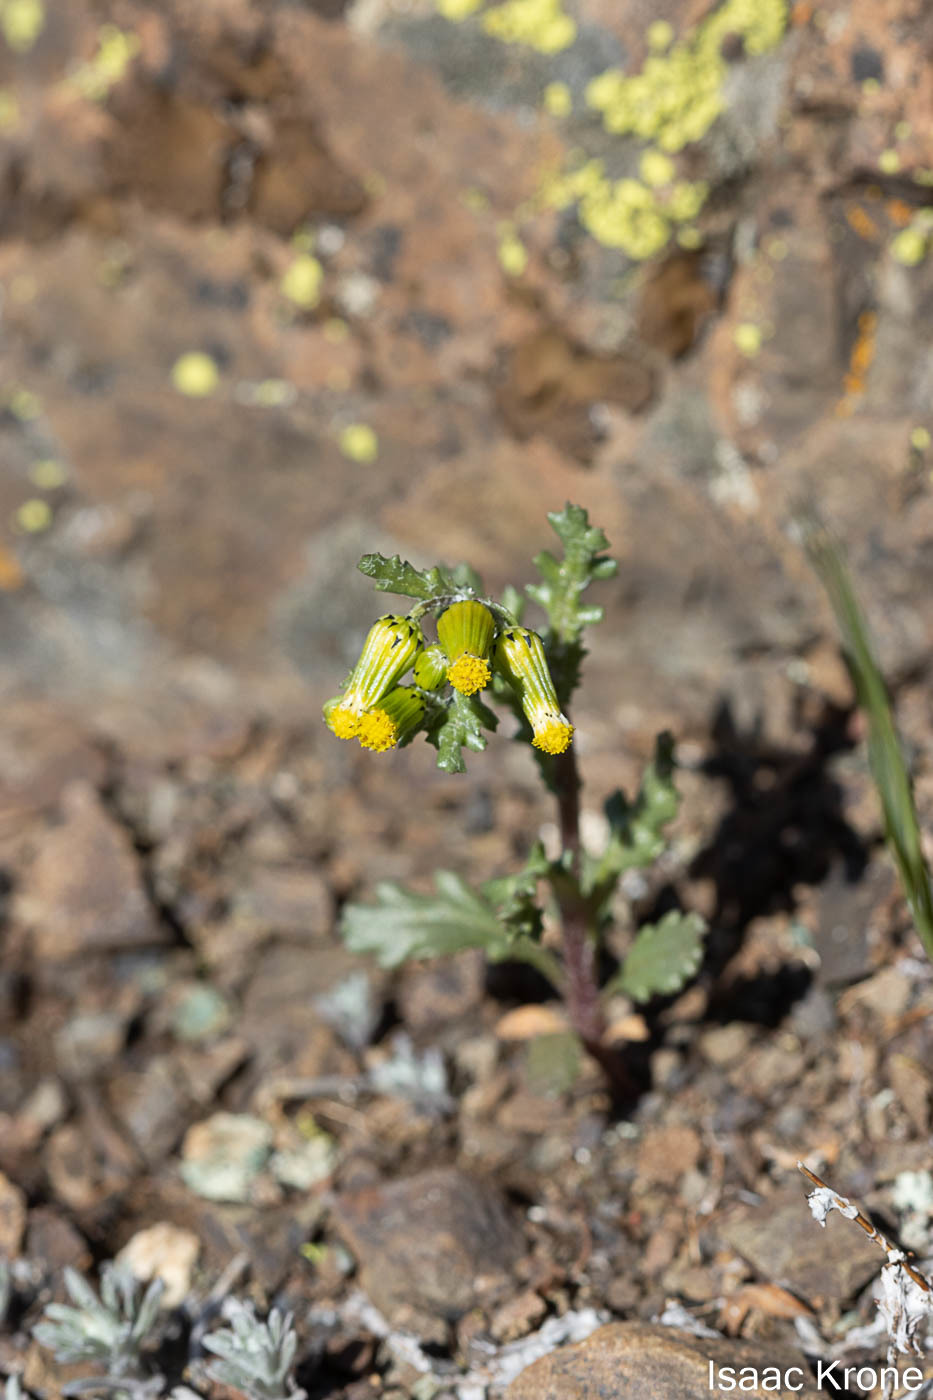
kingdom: Plantae
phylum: Tracheophyta
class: Magnoliopsida
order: Asterales
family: Asteraceae
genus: Senecio
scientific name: Senecio vulgaris
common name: Old-man-in-the-spring
